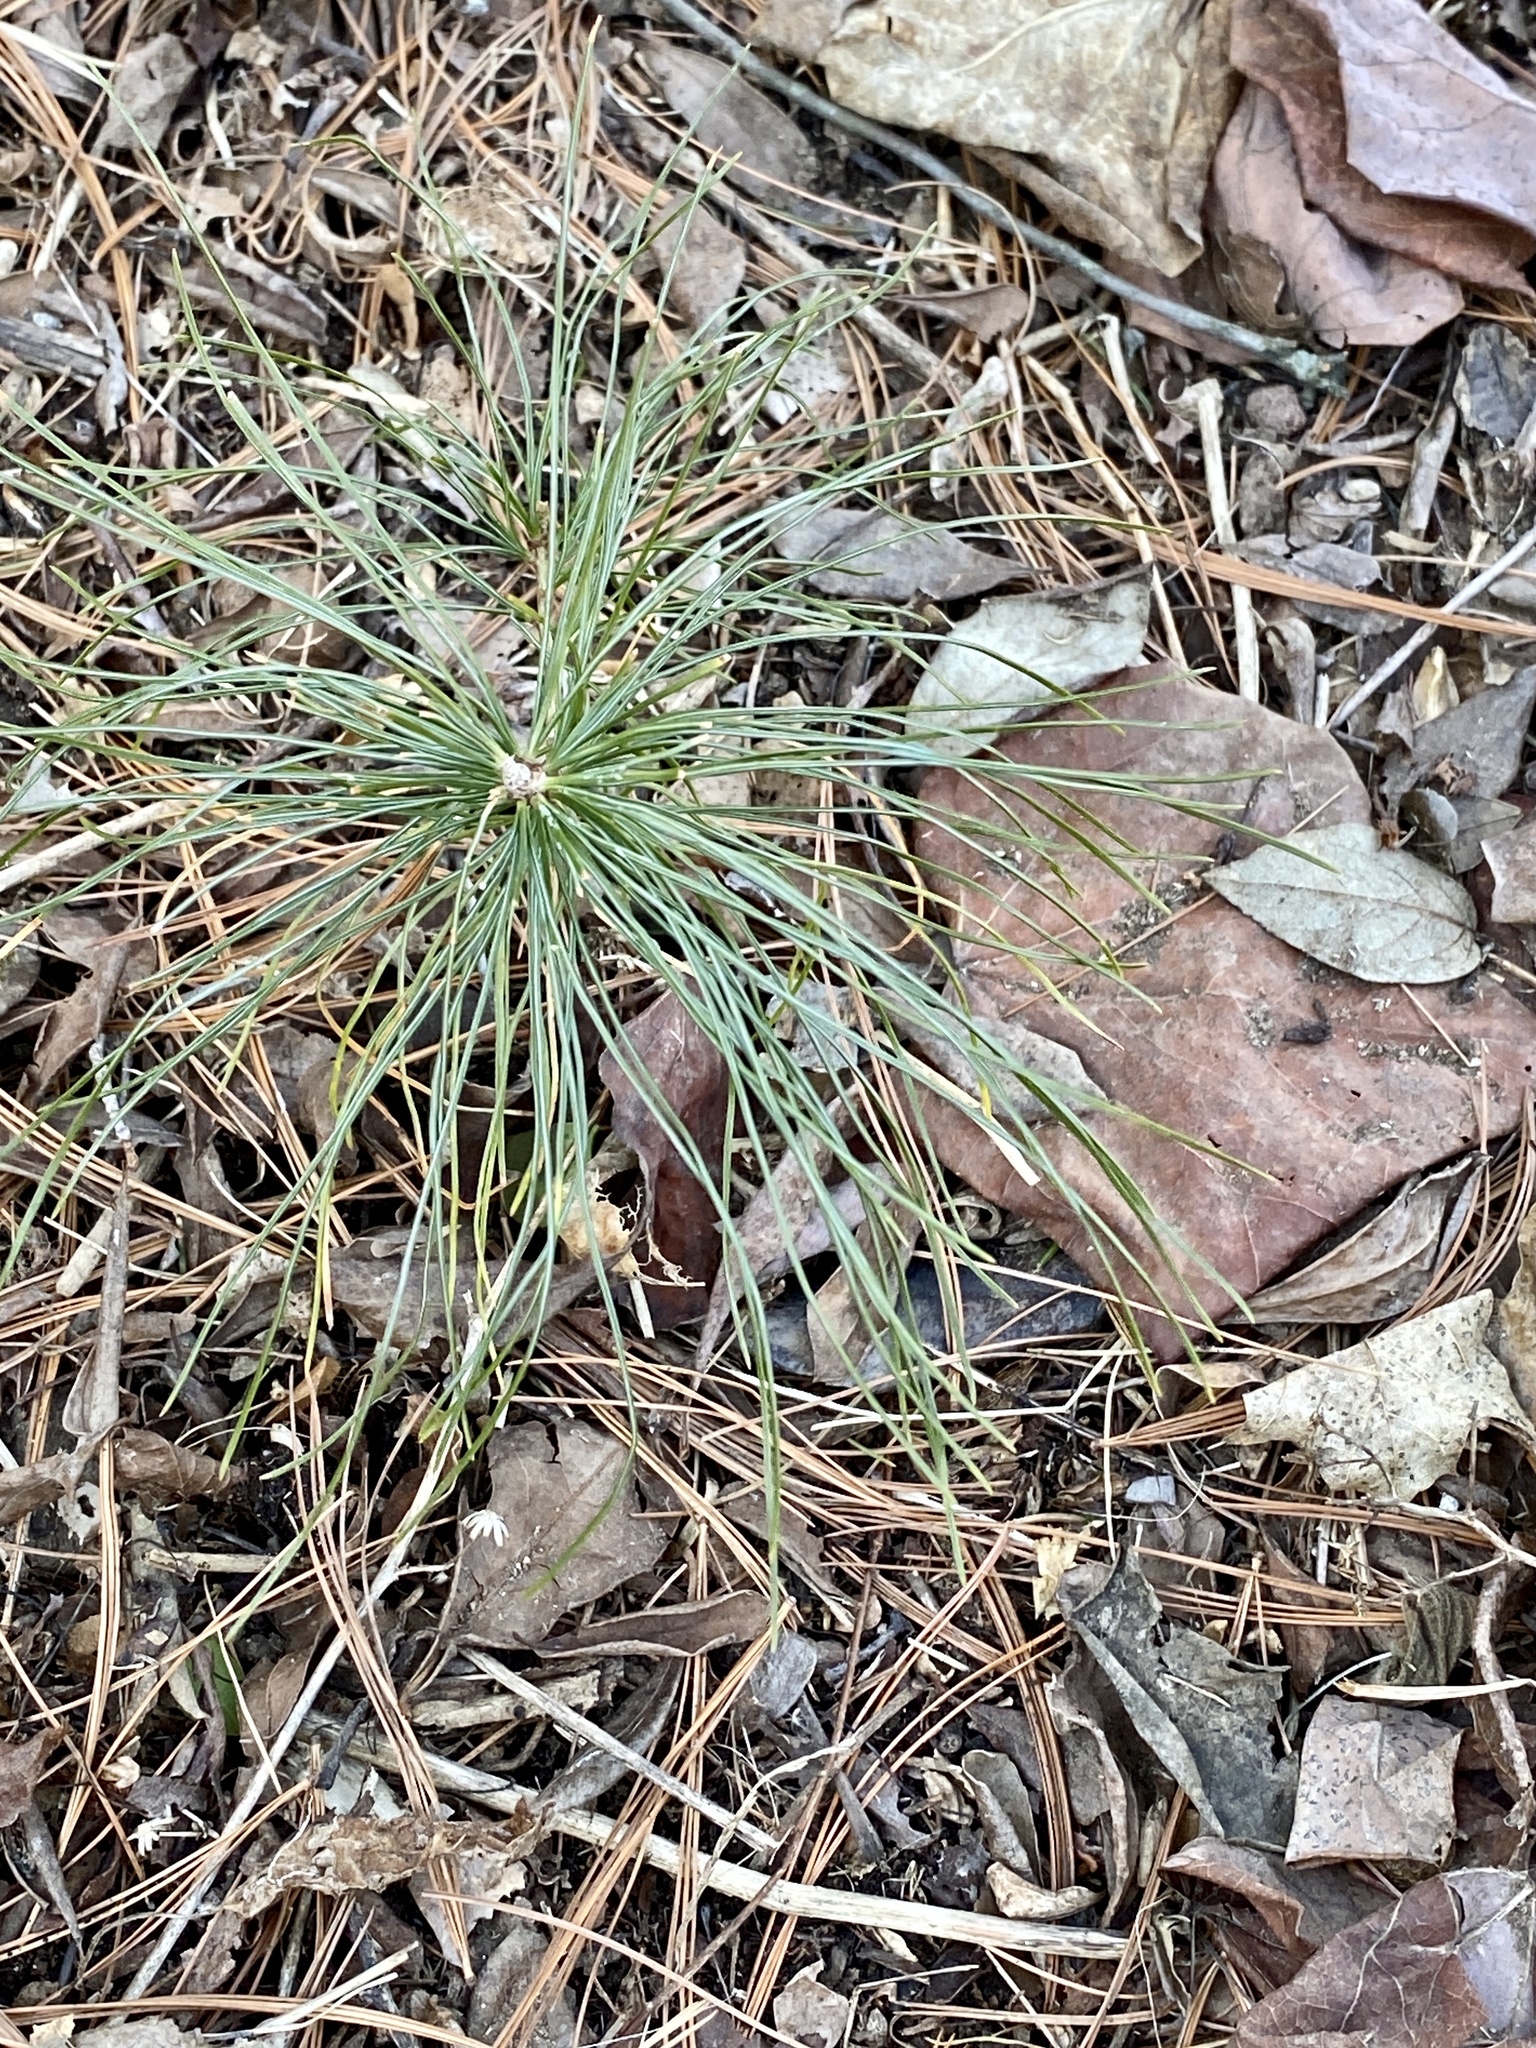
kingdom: Plantae
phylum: Tracheophyta
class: Pinopsida
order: Pinales
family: Pinaceae
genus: Pinus
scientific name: Pinus strobus
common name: Weymouth pine
